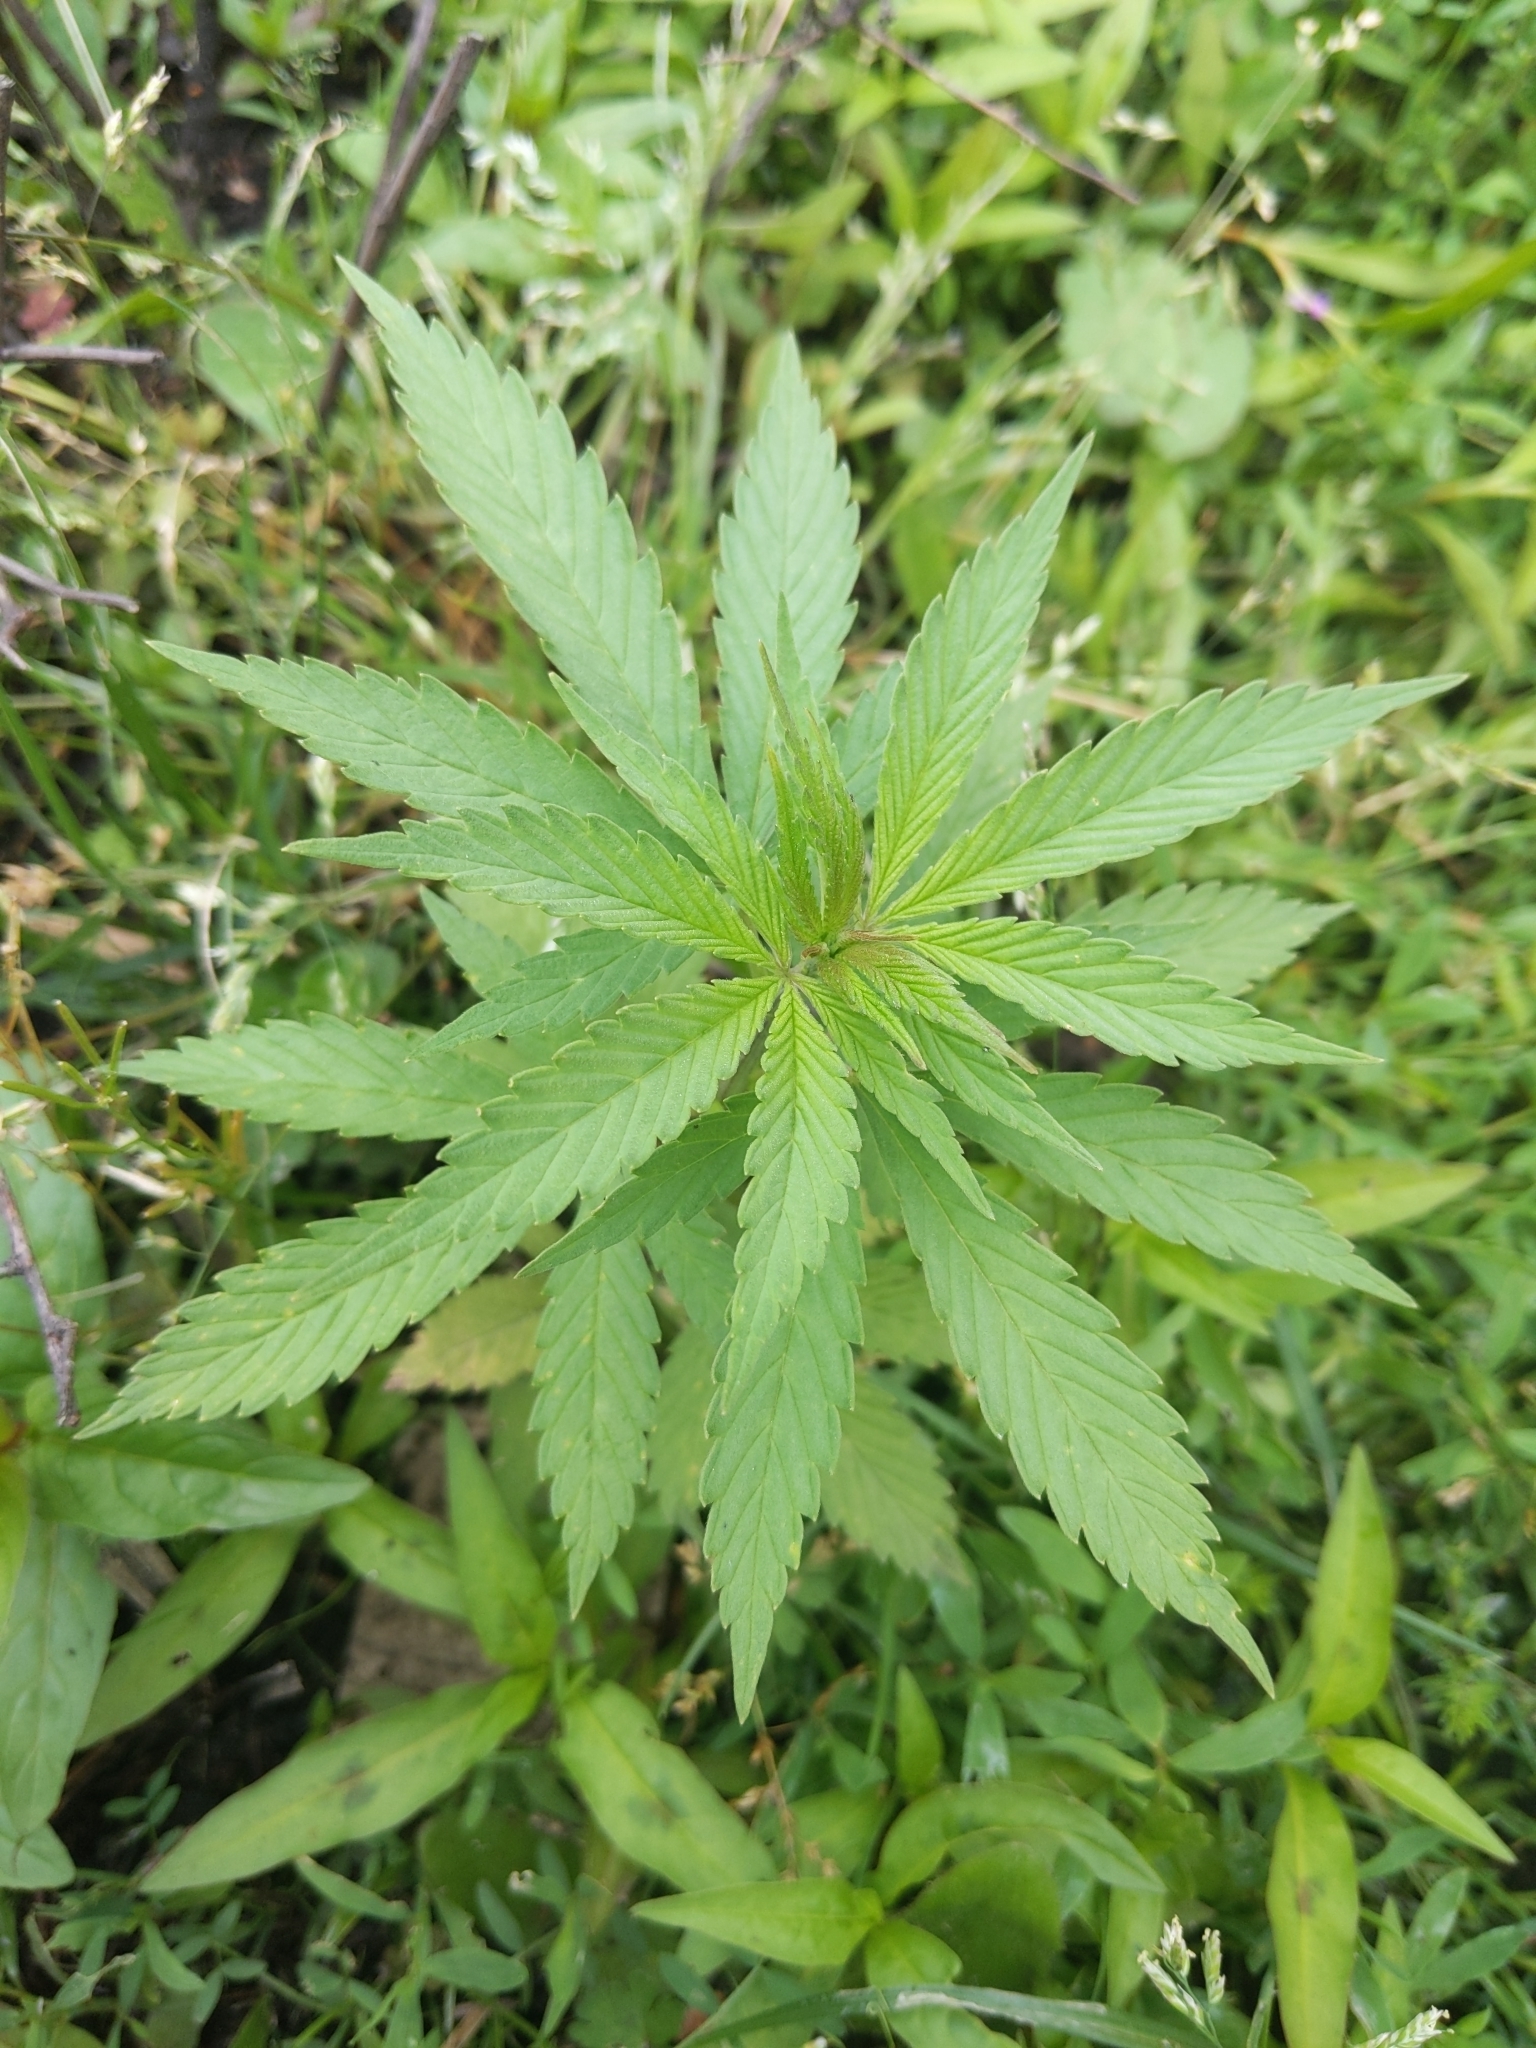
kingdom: Plantae
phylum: Tracheophyta
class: Magnoliopsida
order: Rosales
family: Cannabaceae
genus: Cannabis
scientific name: Cannabis sativa
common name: Hemp
